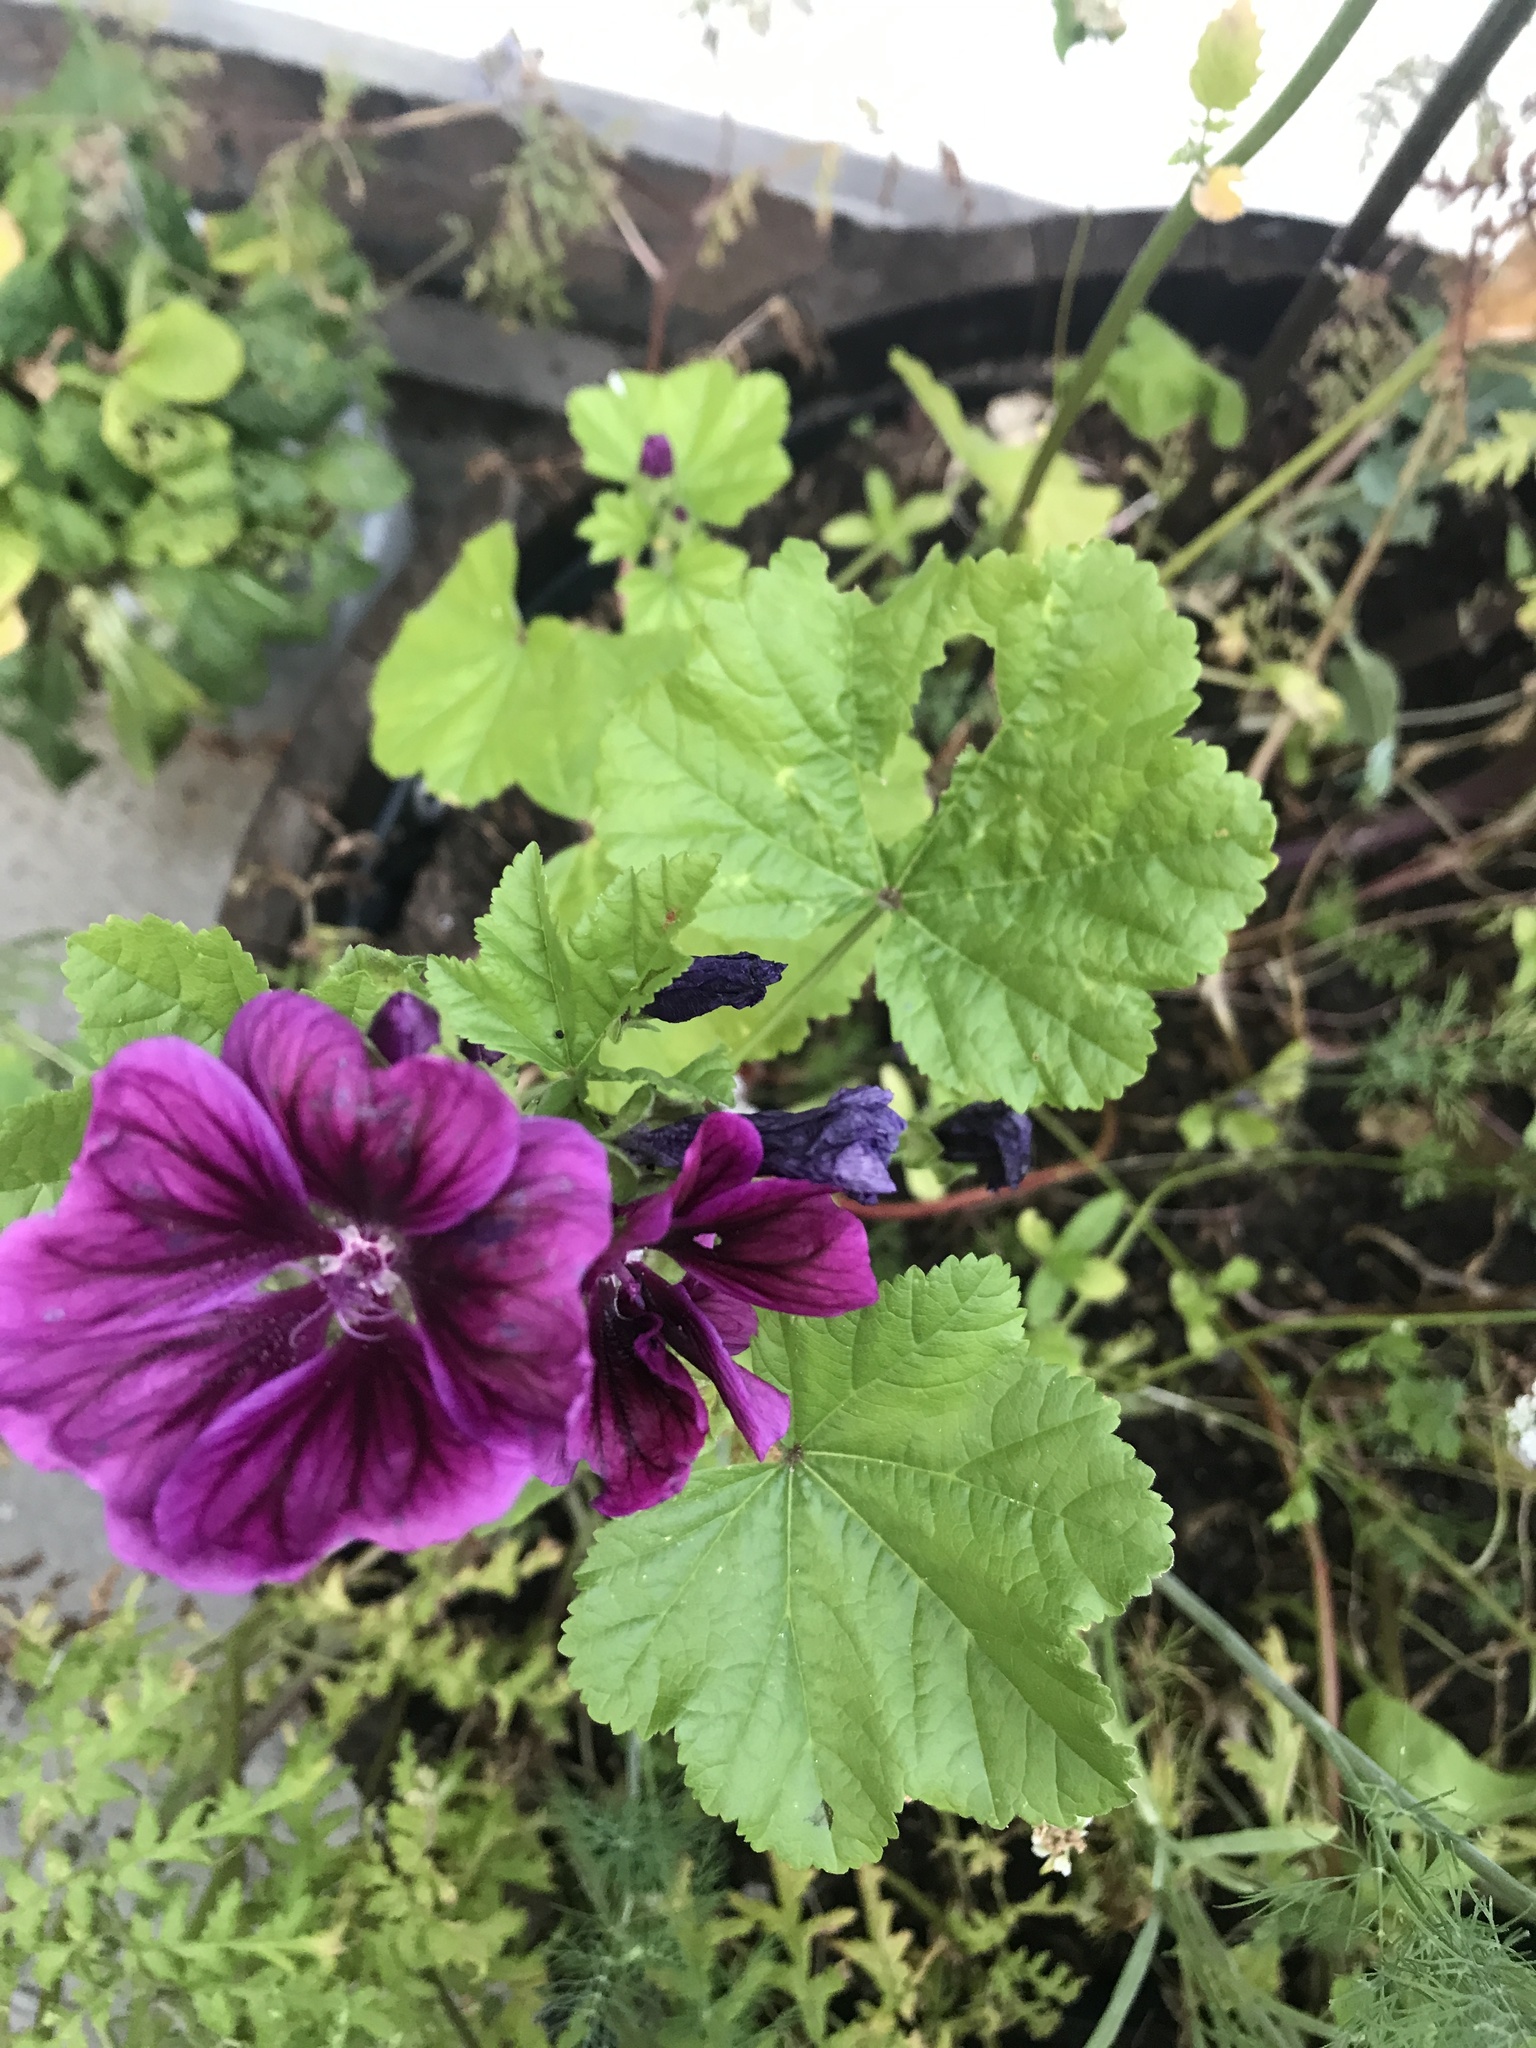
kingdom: Plantae
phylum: Tracheophyta
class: Magnoliopsida
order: Malvales
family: Malvaceae
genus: Malva
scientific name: Malva sylvestris
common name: Common mallow
